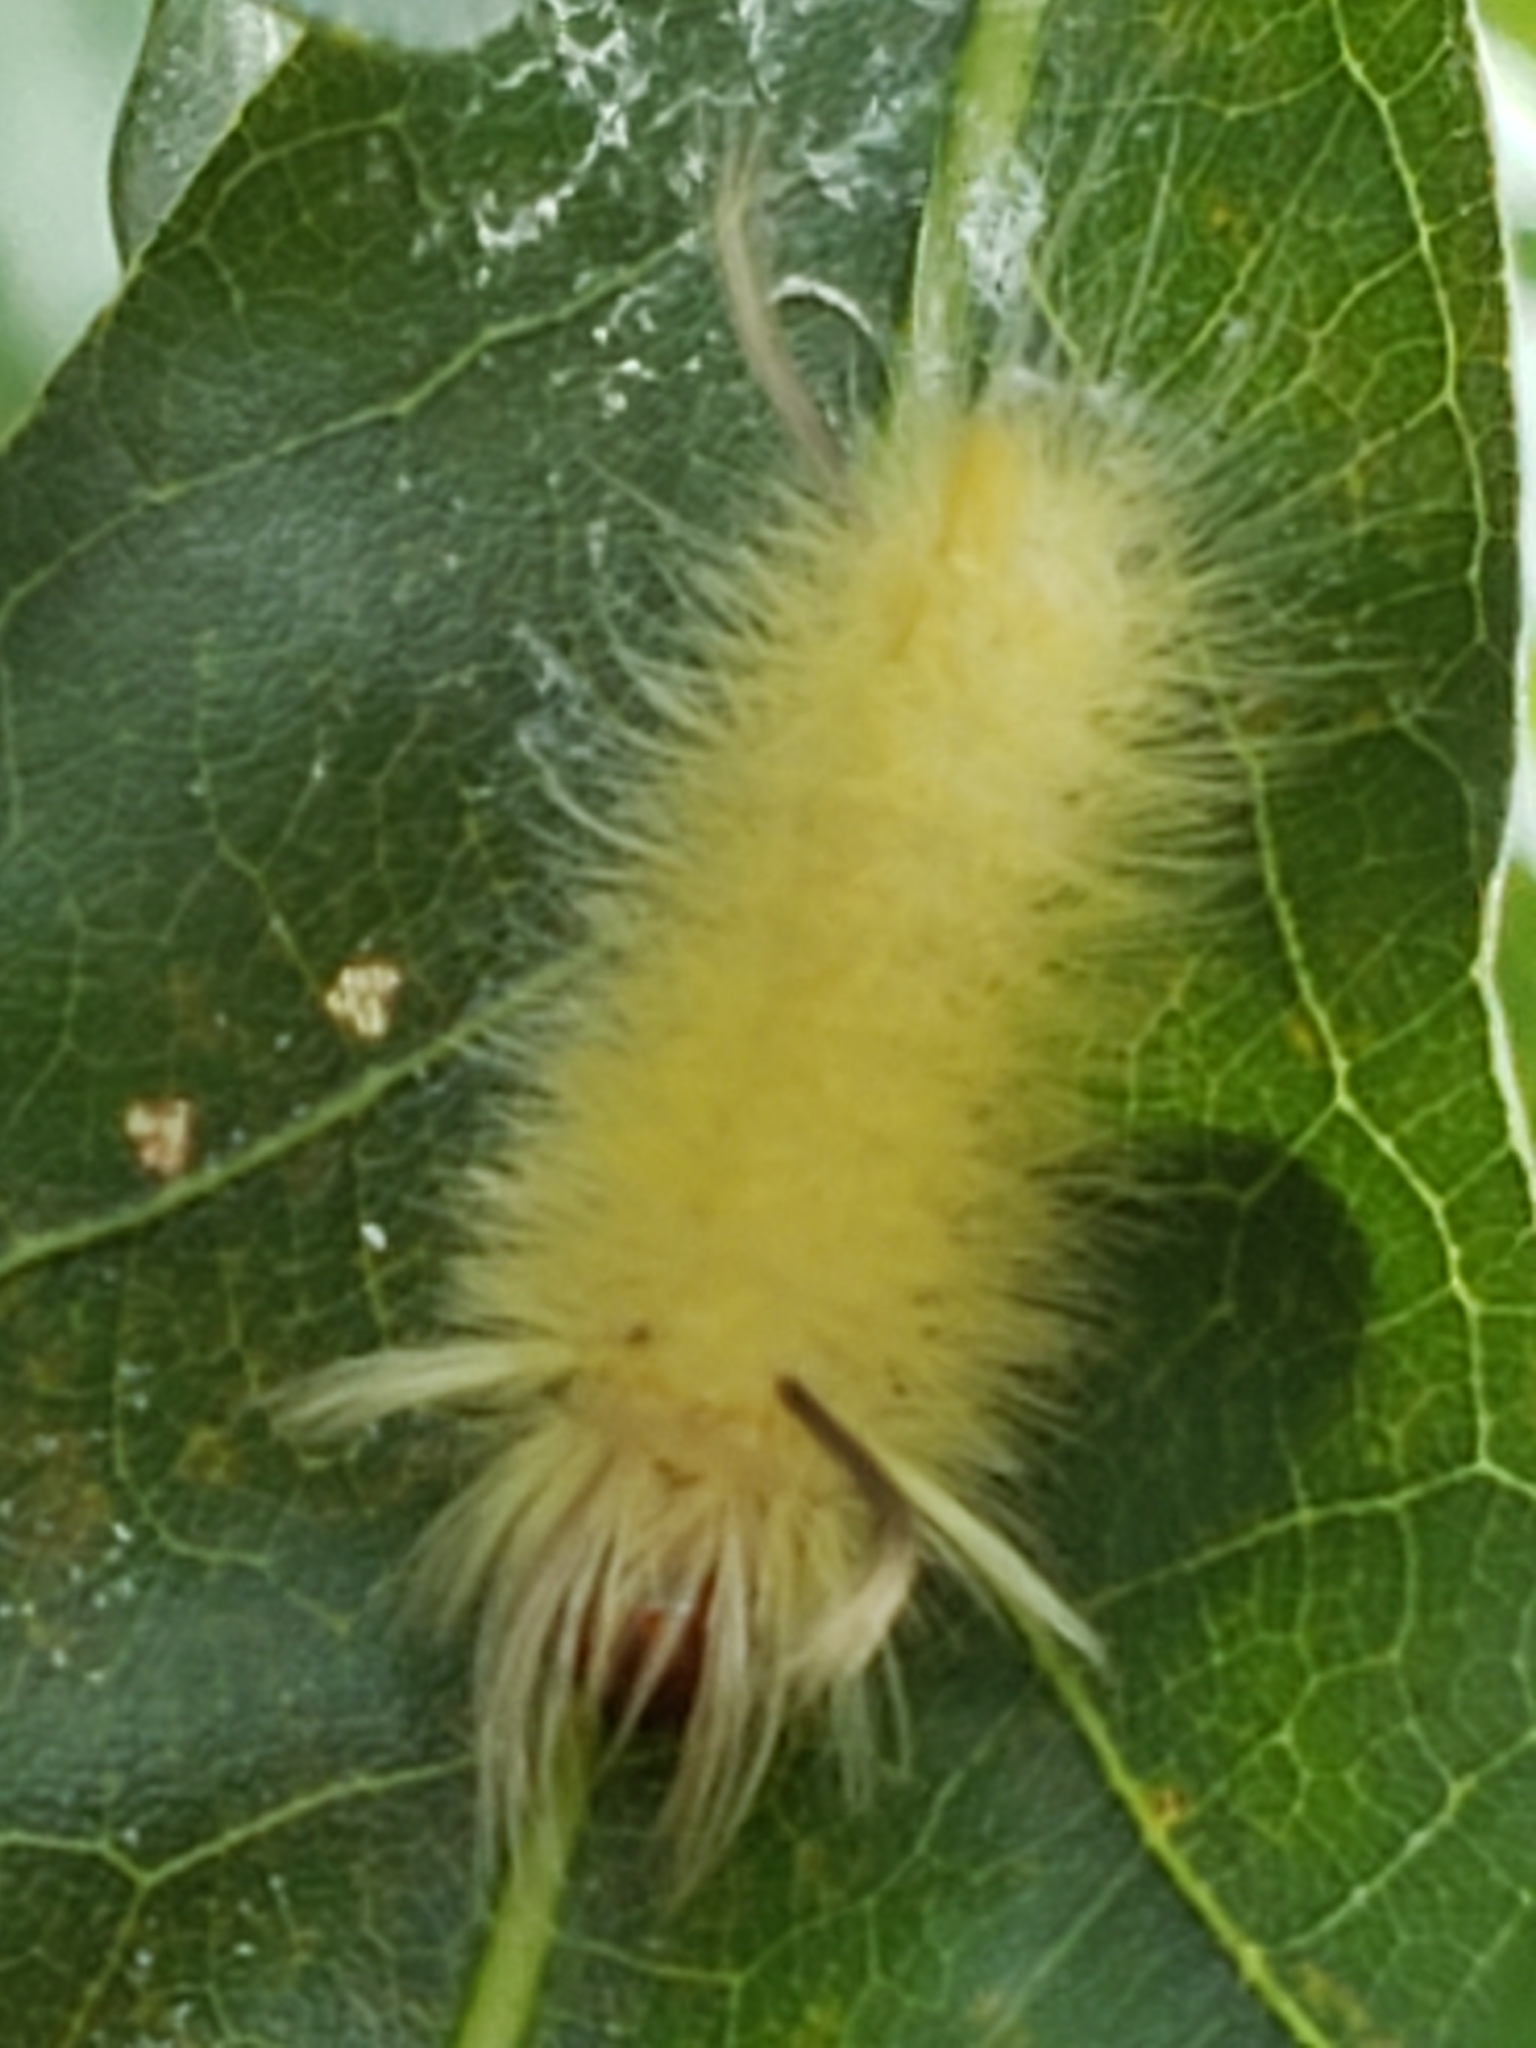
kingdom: Animalia
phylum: Arthropoda
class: Insecta
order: Lepidoptera
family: Erebidae
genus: Halysidota
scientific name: Halysidota tessellaris
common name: Banded tussock moth
